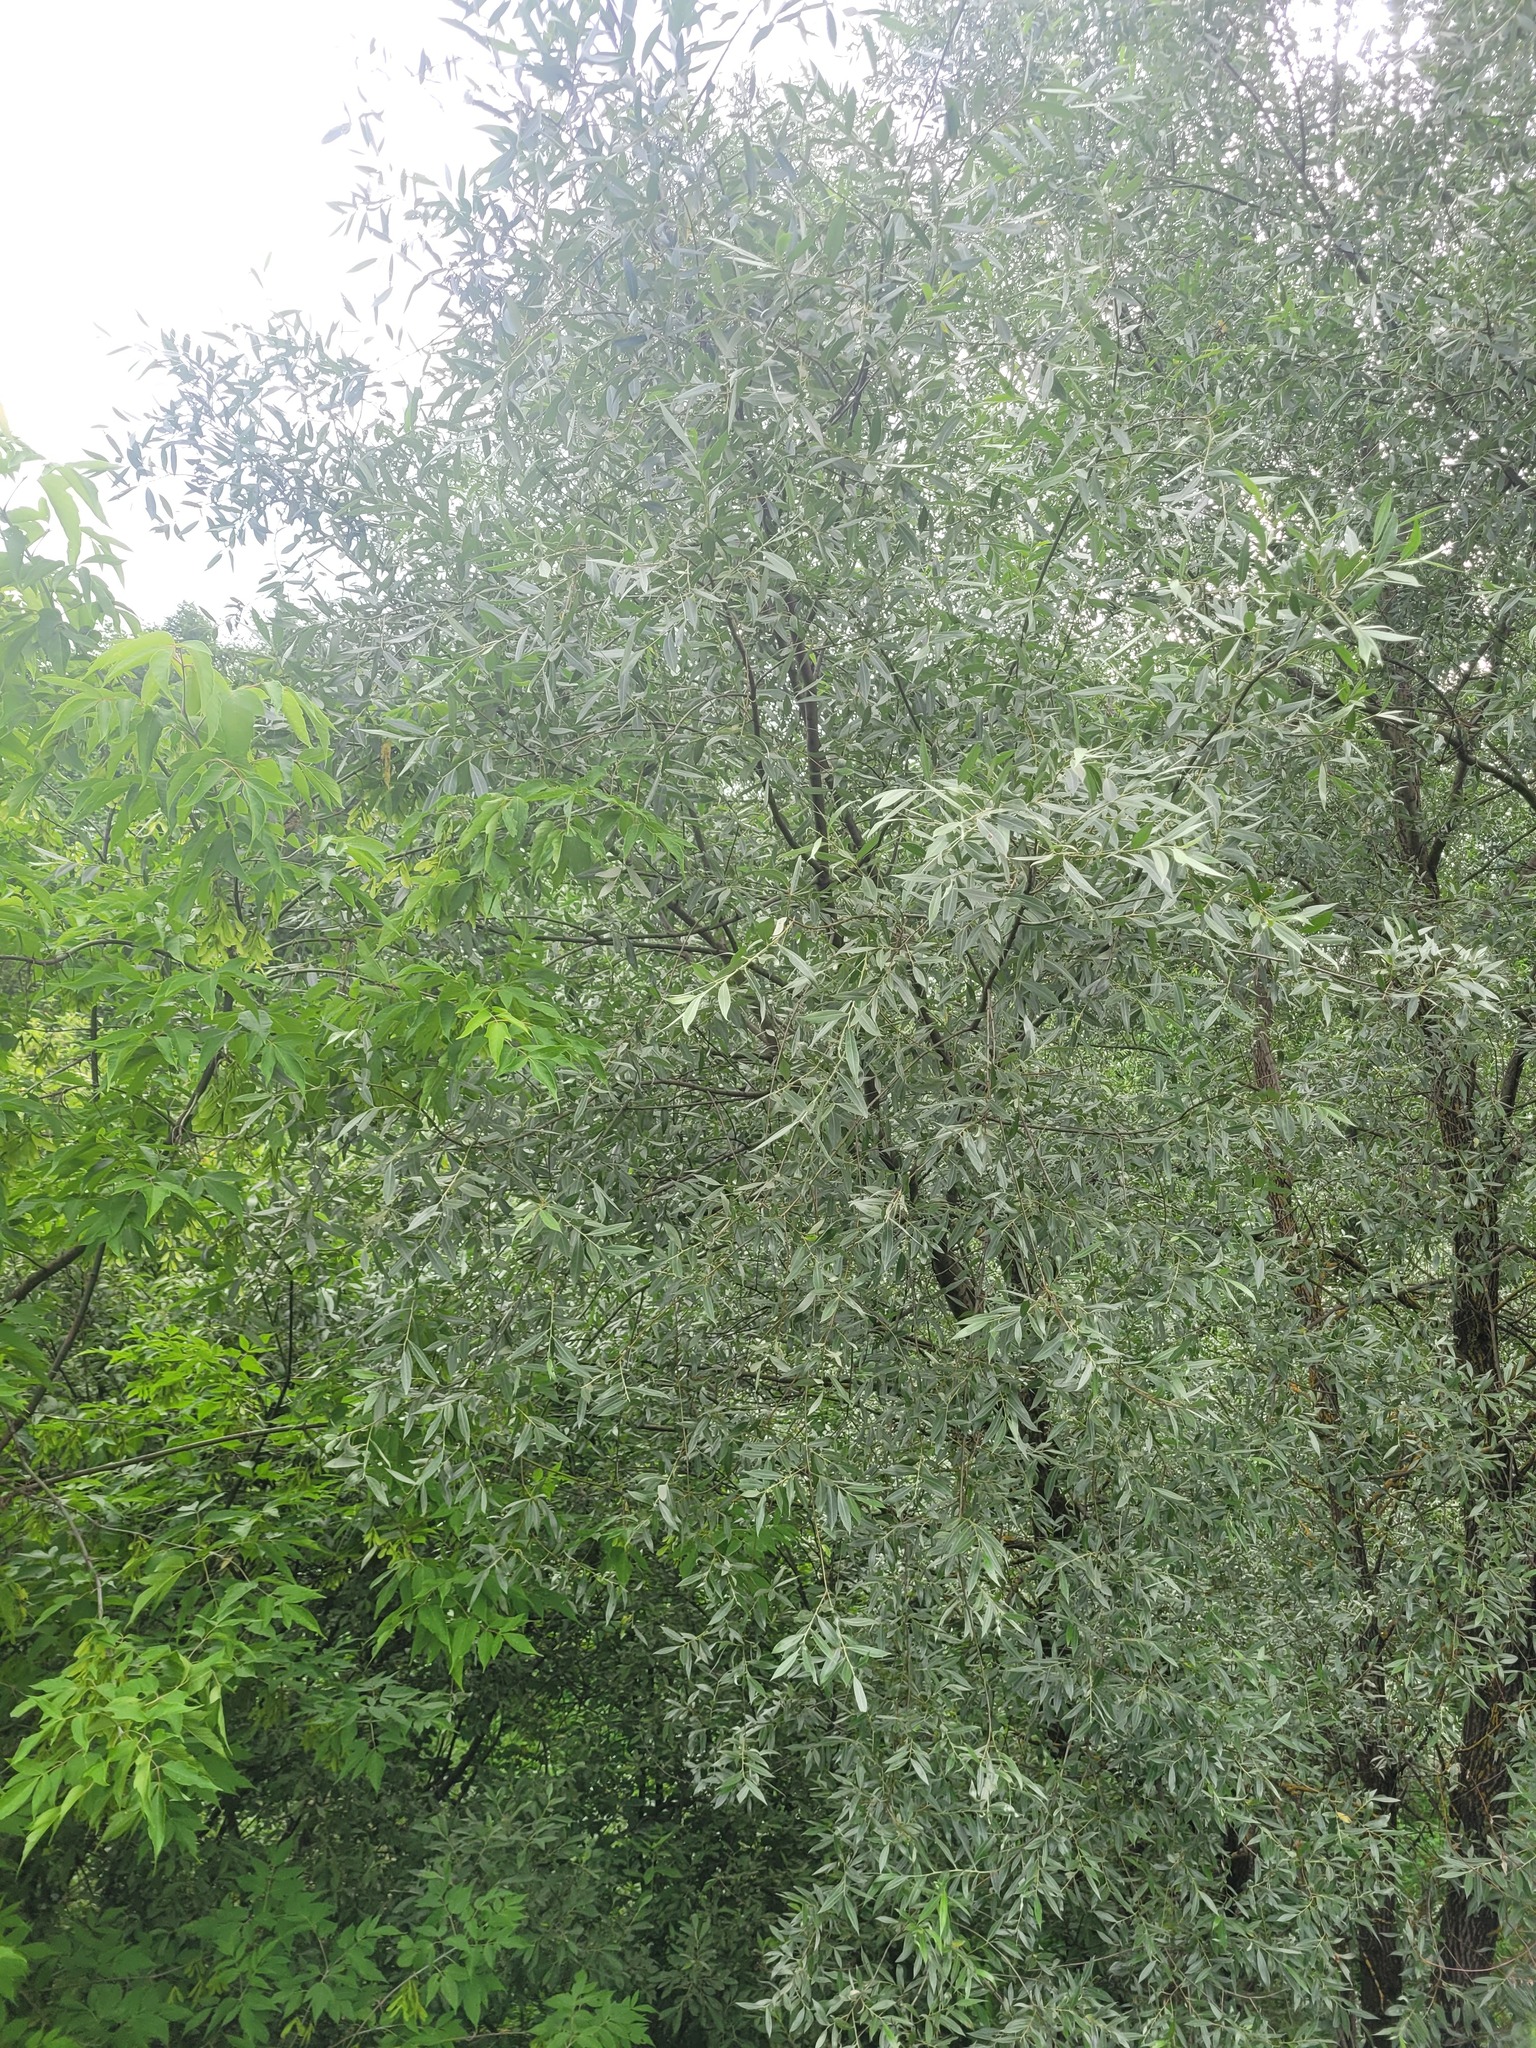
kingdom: Plantae
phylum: Tracheophyta
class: Magnoliopsida
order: Malpighiales
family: Salicaceae
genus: Salix
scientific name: Salix alba
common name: White willow
